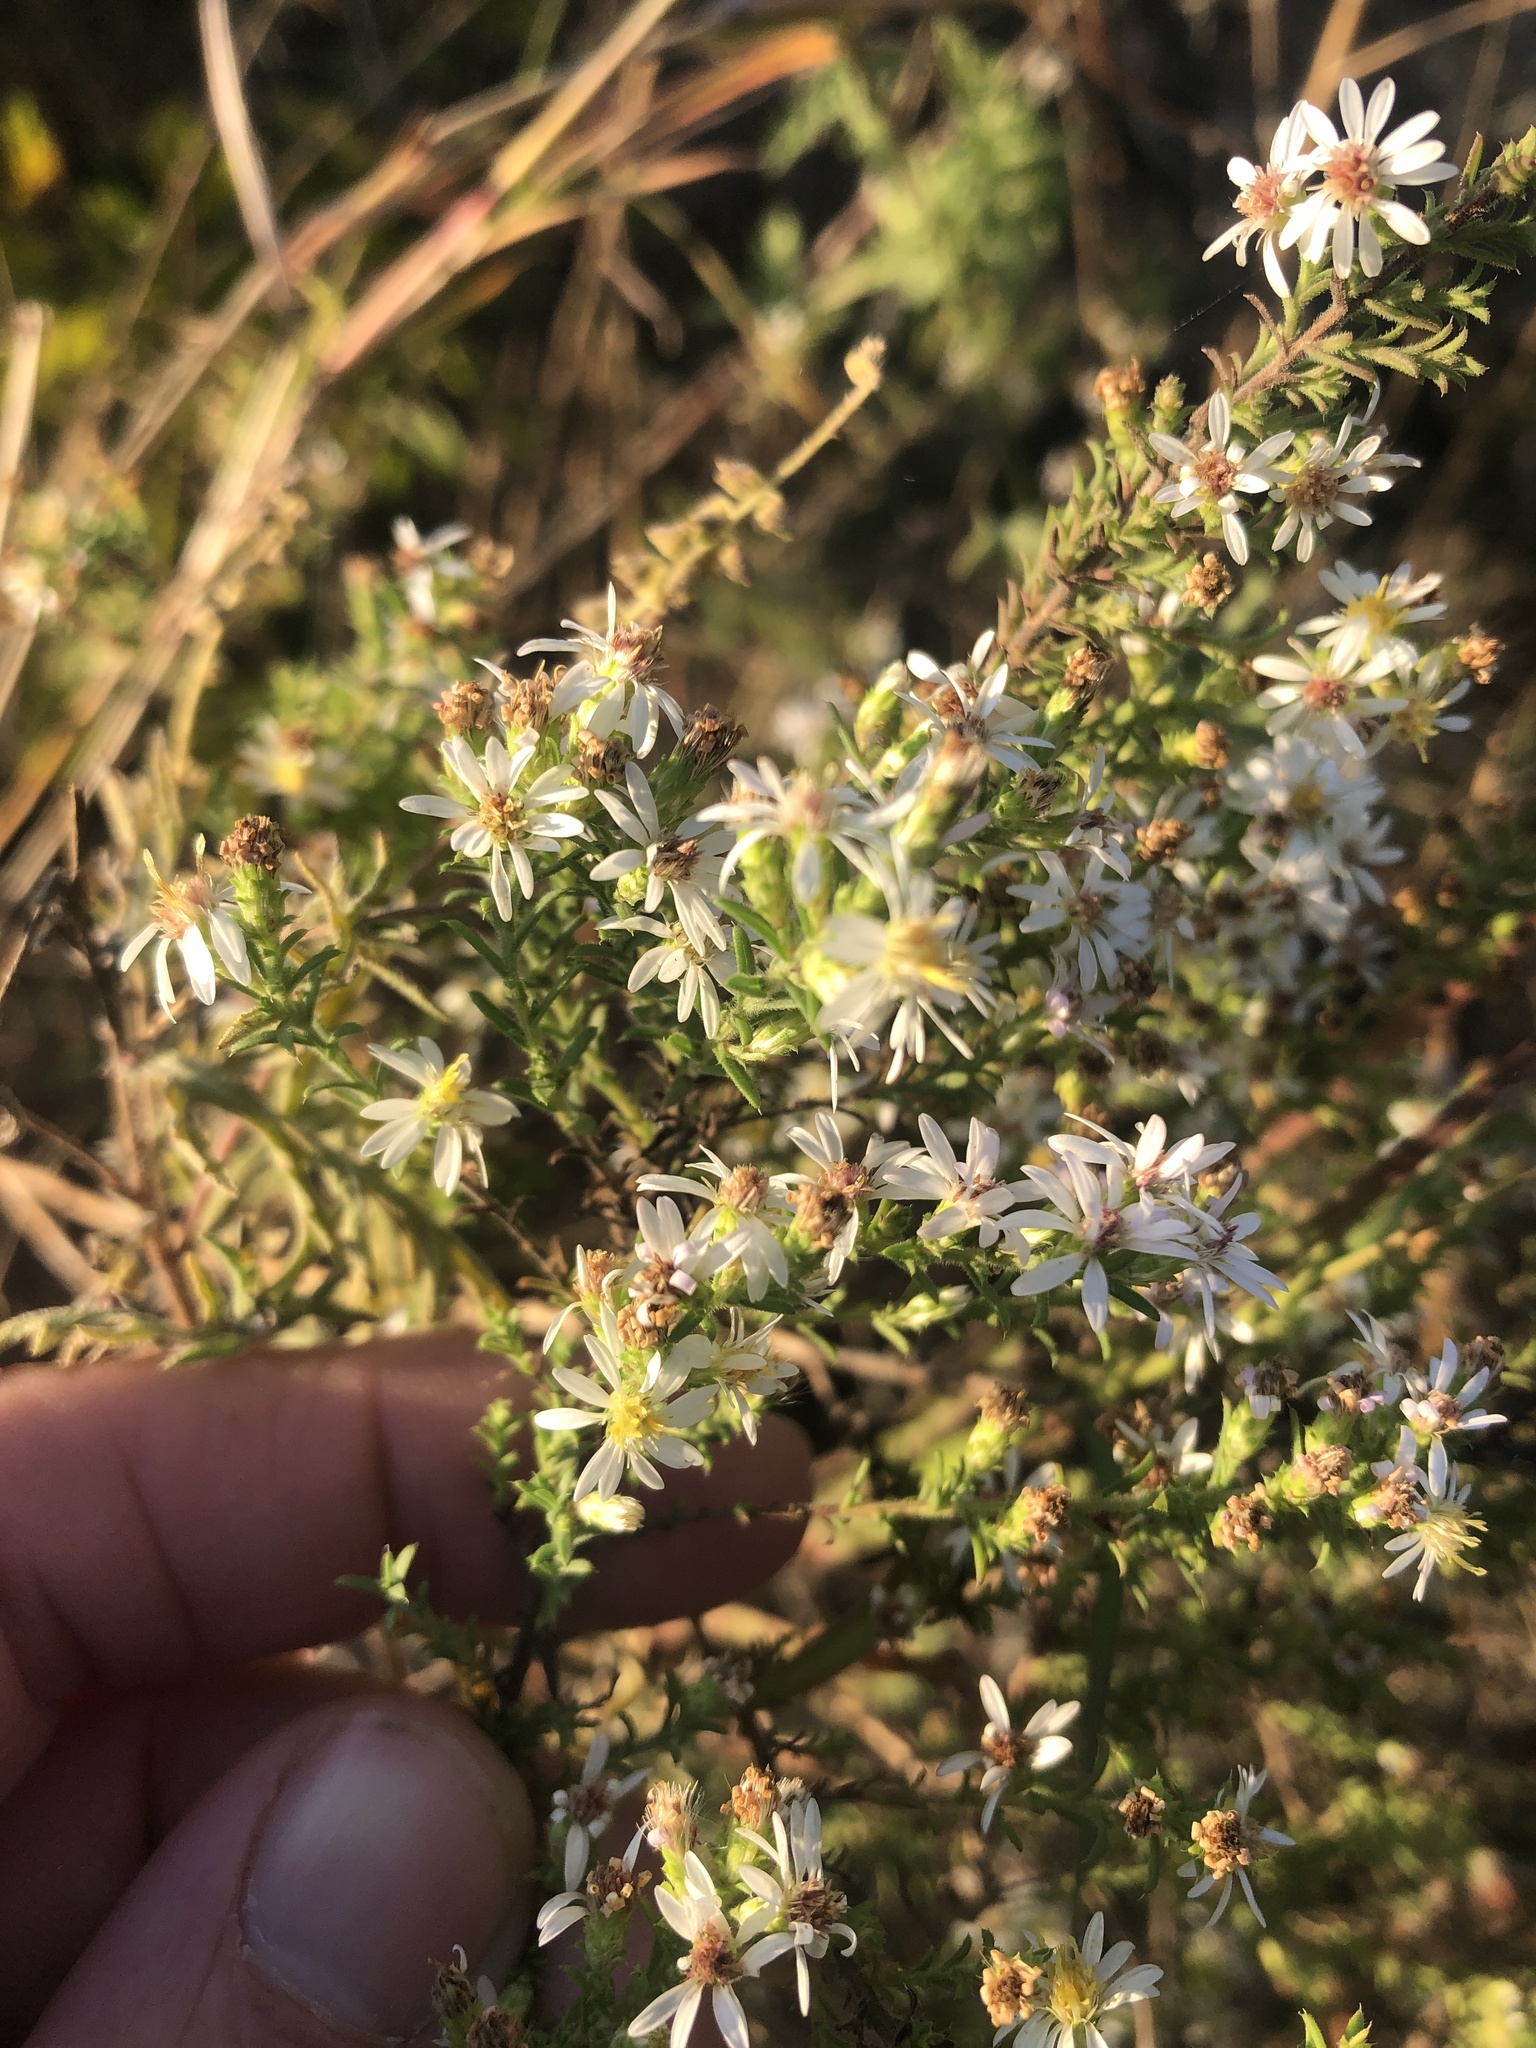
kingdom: Plantae
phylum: Tracheophyta
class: Magnoliopsida
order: Asterales
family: Asteraceae
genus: Symphyotrichum
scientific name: Symphyotrichum ericoides
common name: Heath aster
